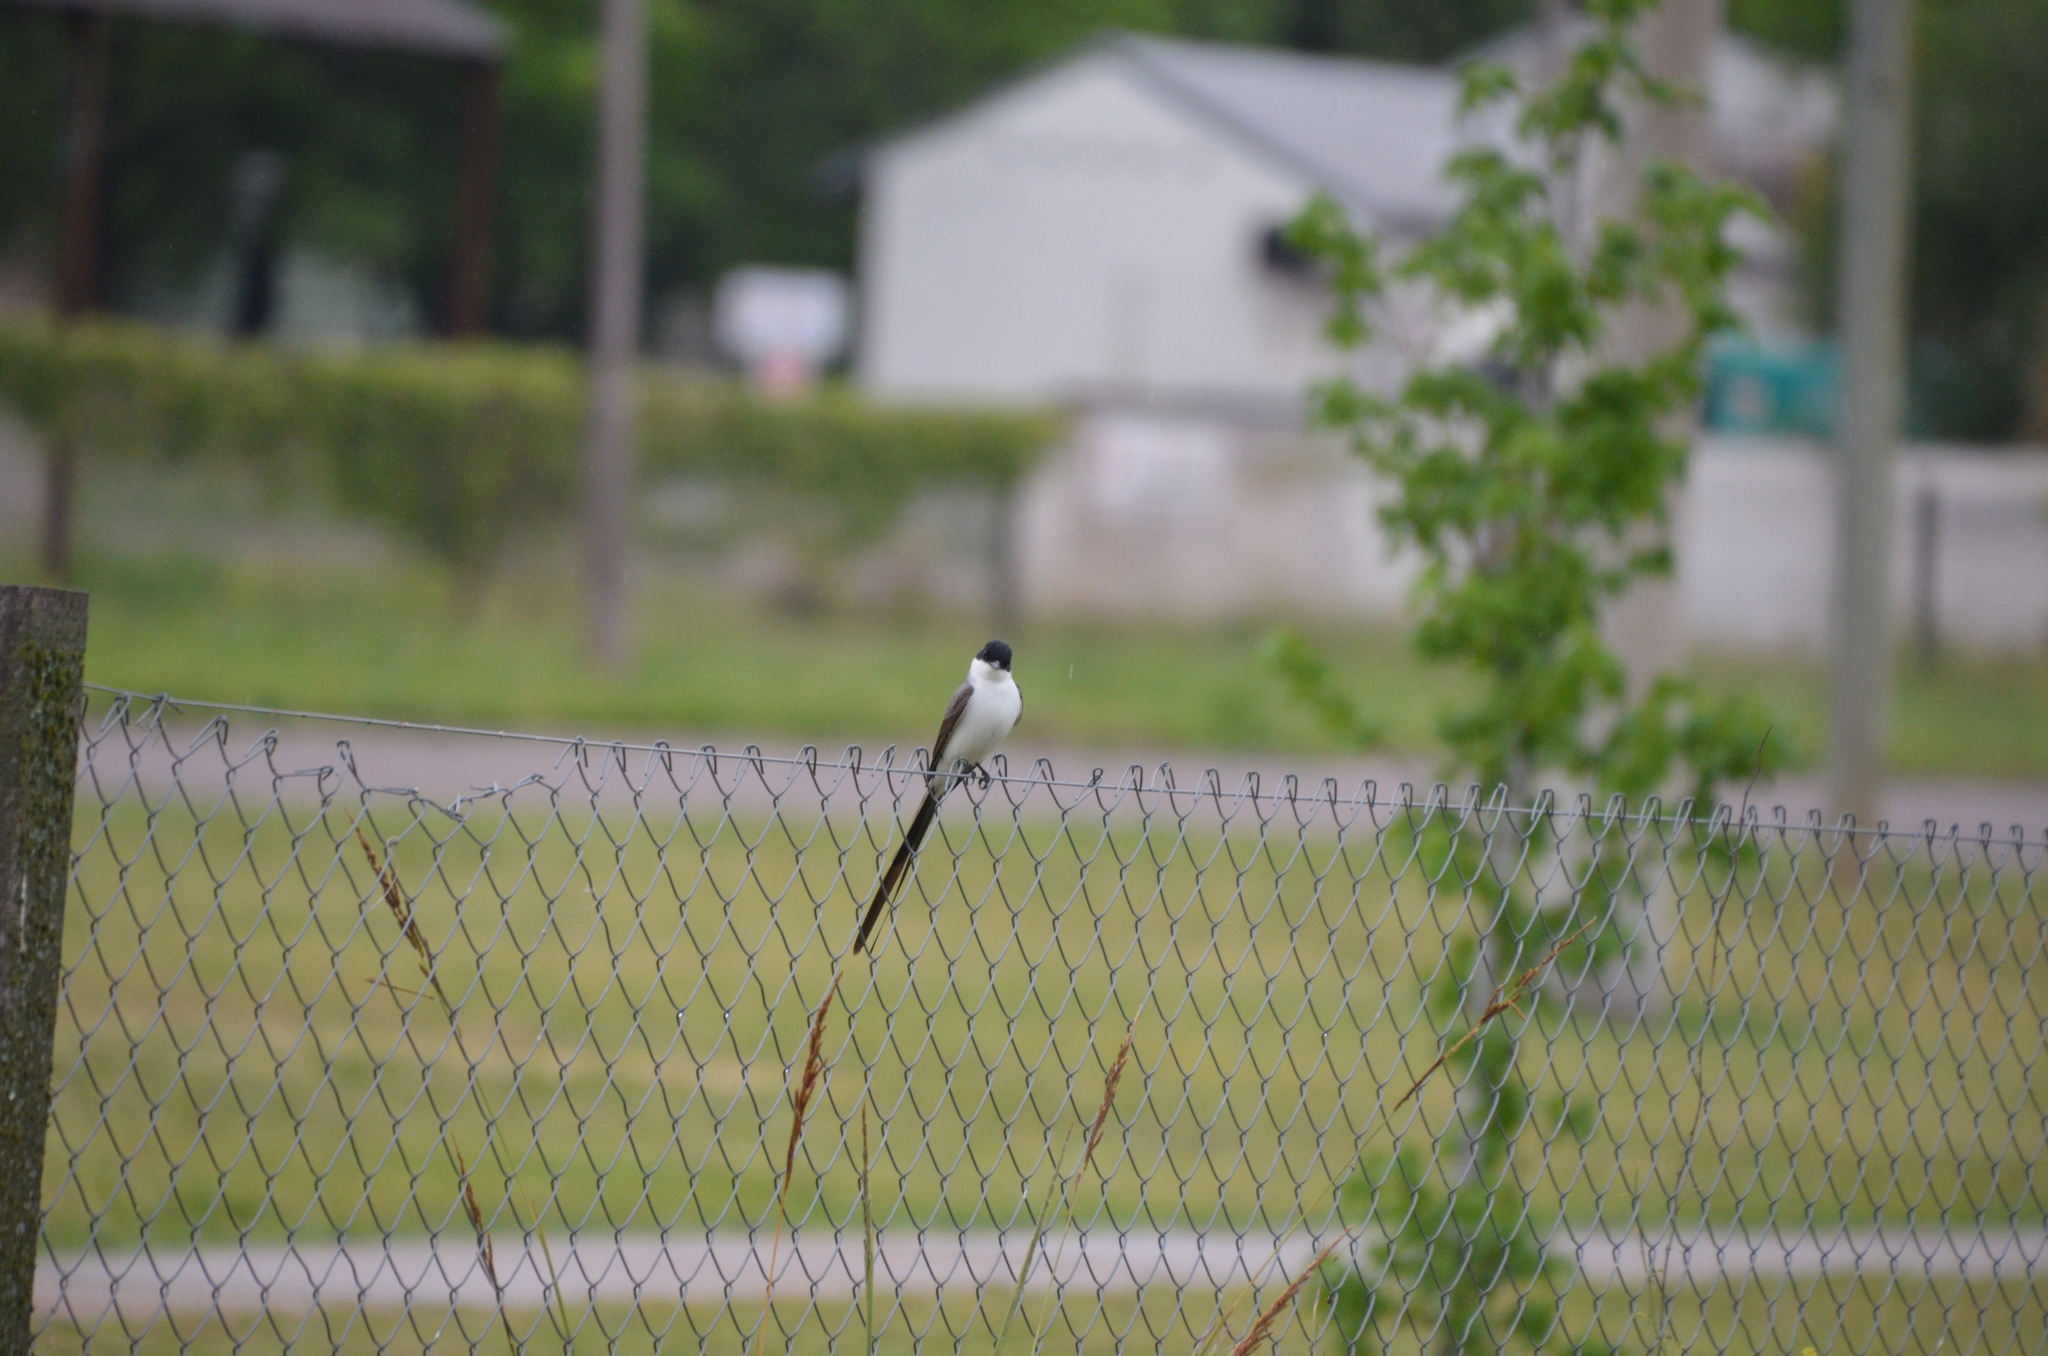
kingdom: Animalia
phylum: Chordata
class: Aves
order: Passeriformes
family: Tyrannidae
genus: Tyrannus
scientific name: Tyrannus savana
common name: Fork-tailed flycatcher
